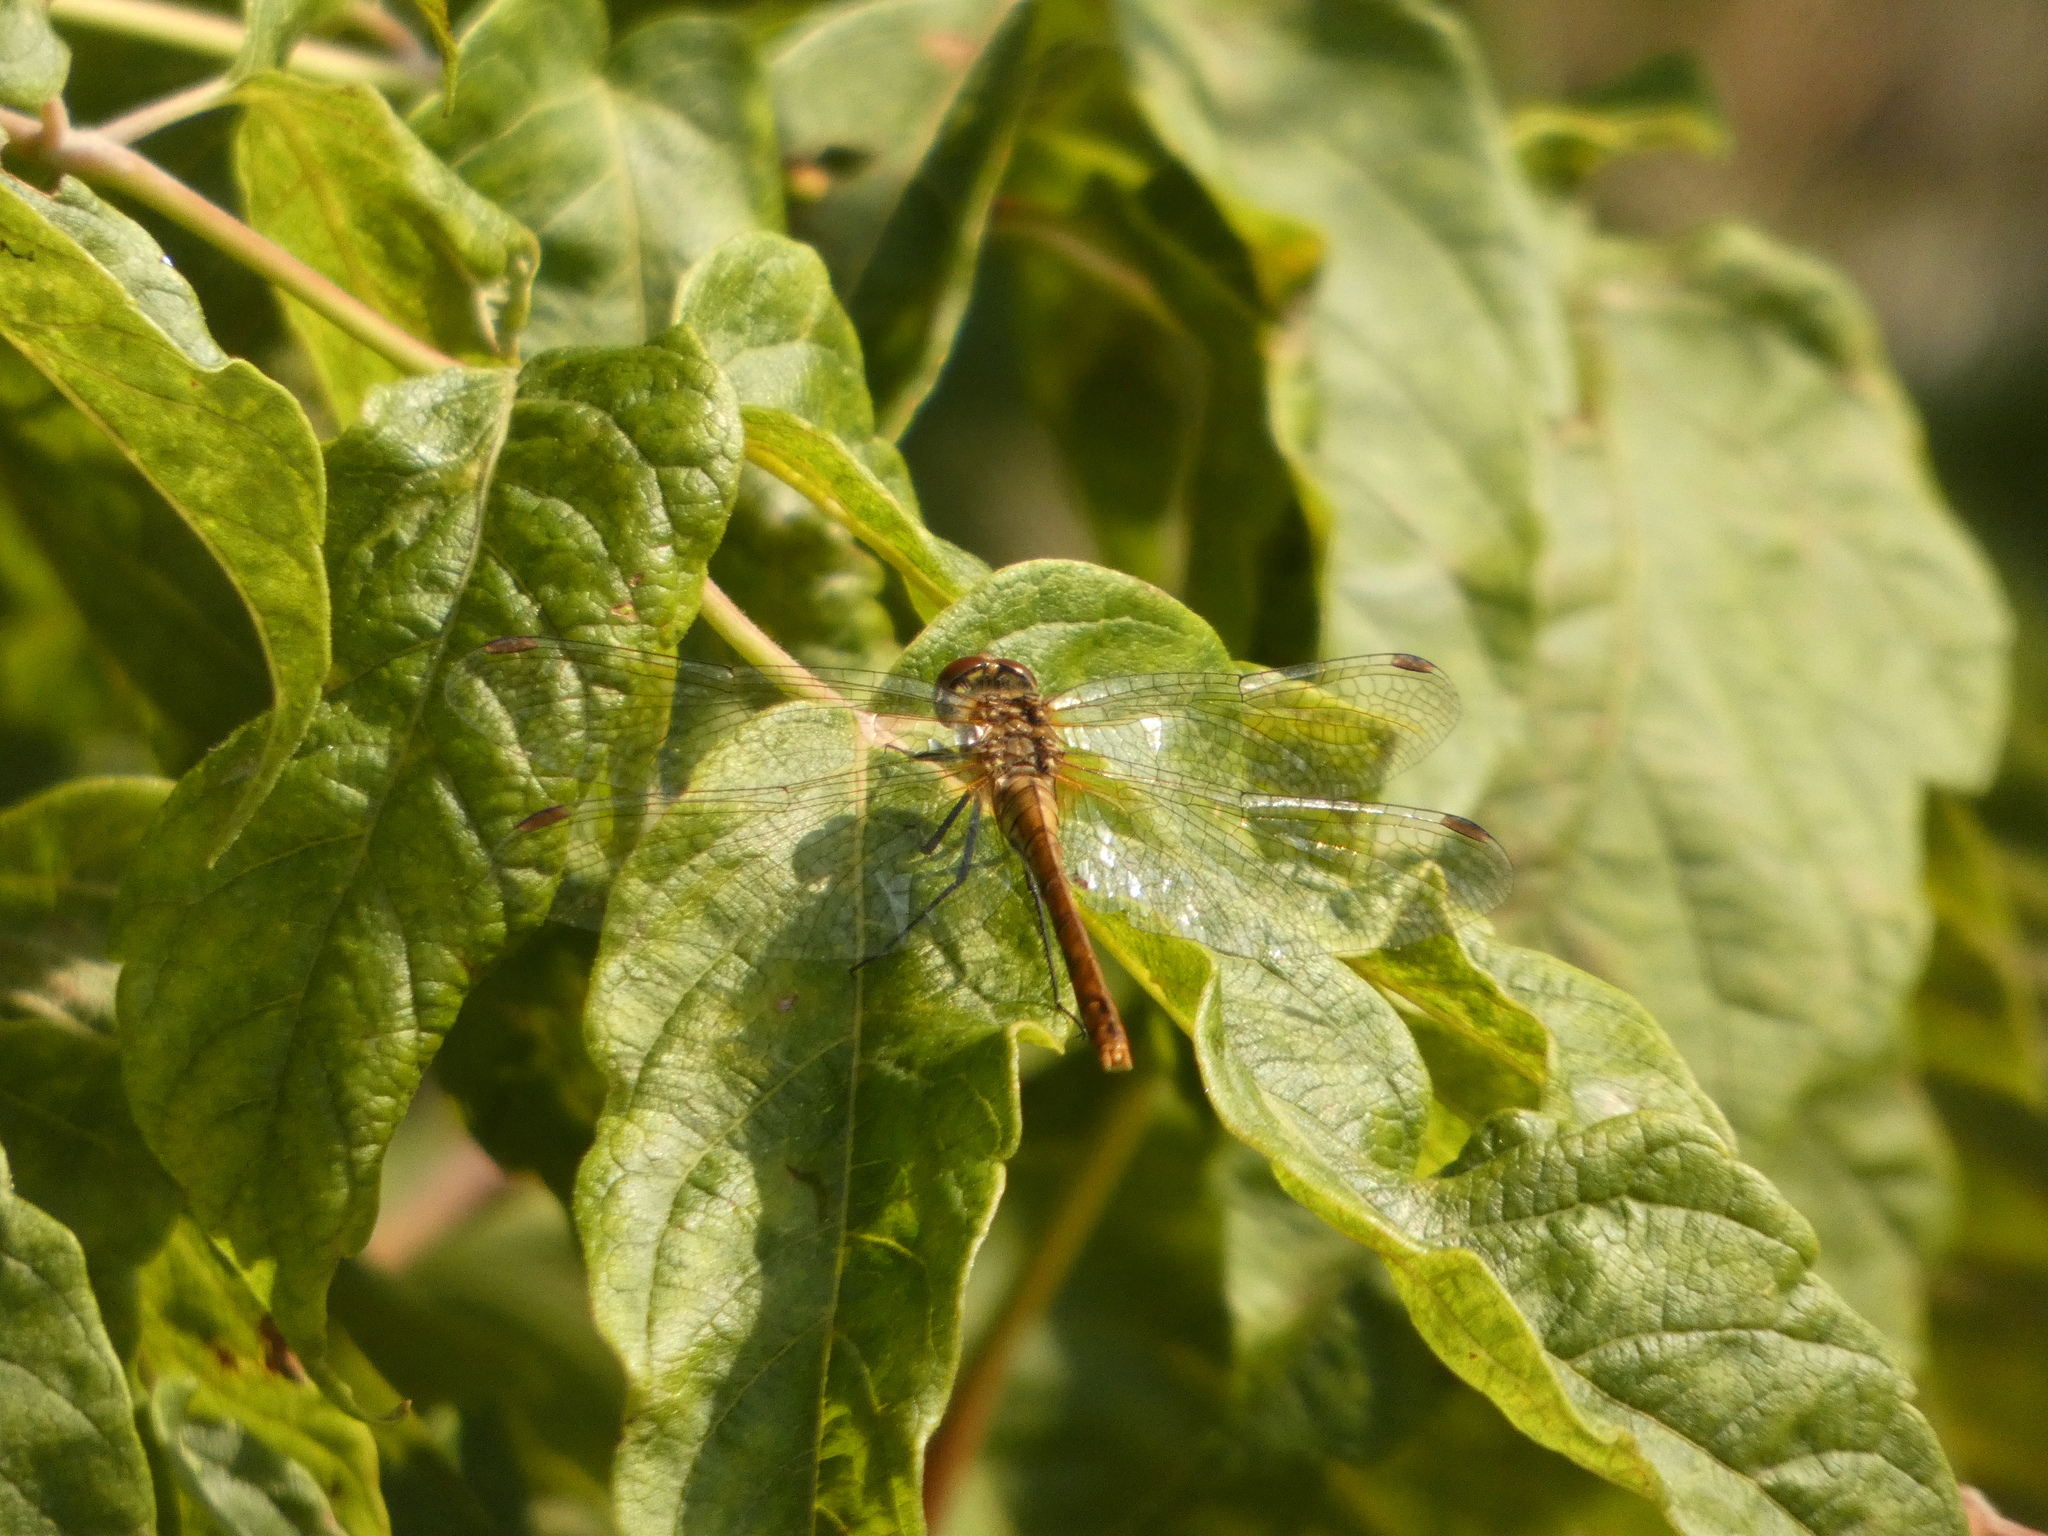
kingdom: Animalia
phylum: Arthropoda
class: Insecta
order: Odonata
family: Libellulidae
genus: Sympetrum
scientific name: Sympetrum sanguineum
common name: Ruddy darter
